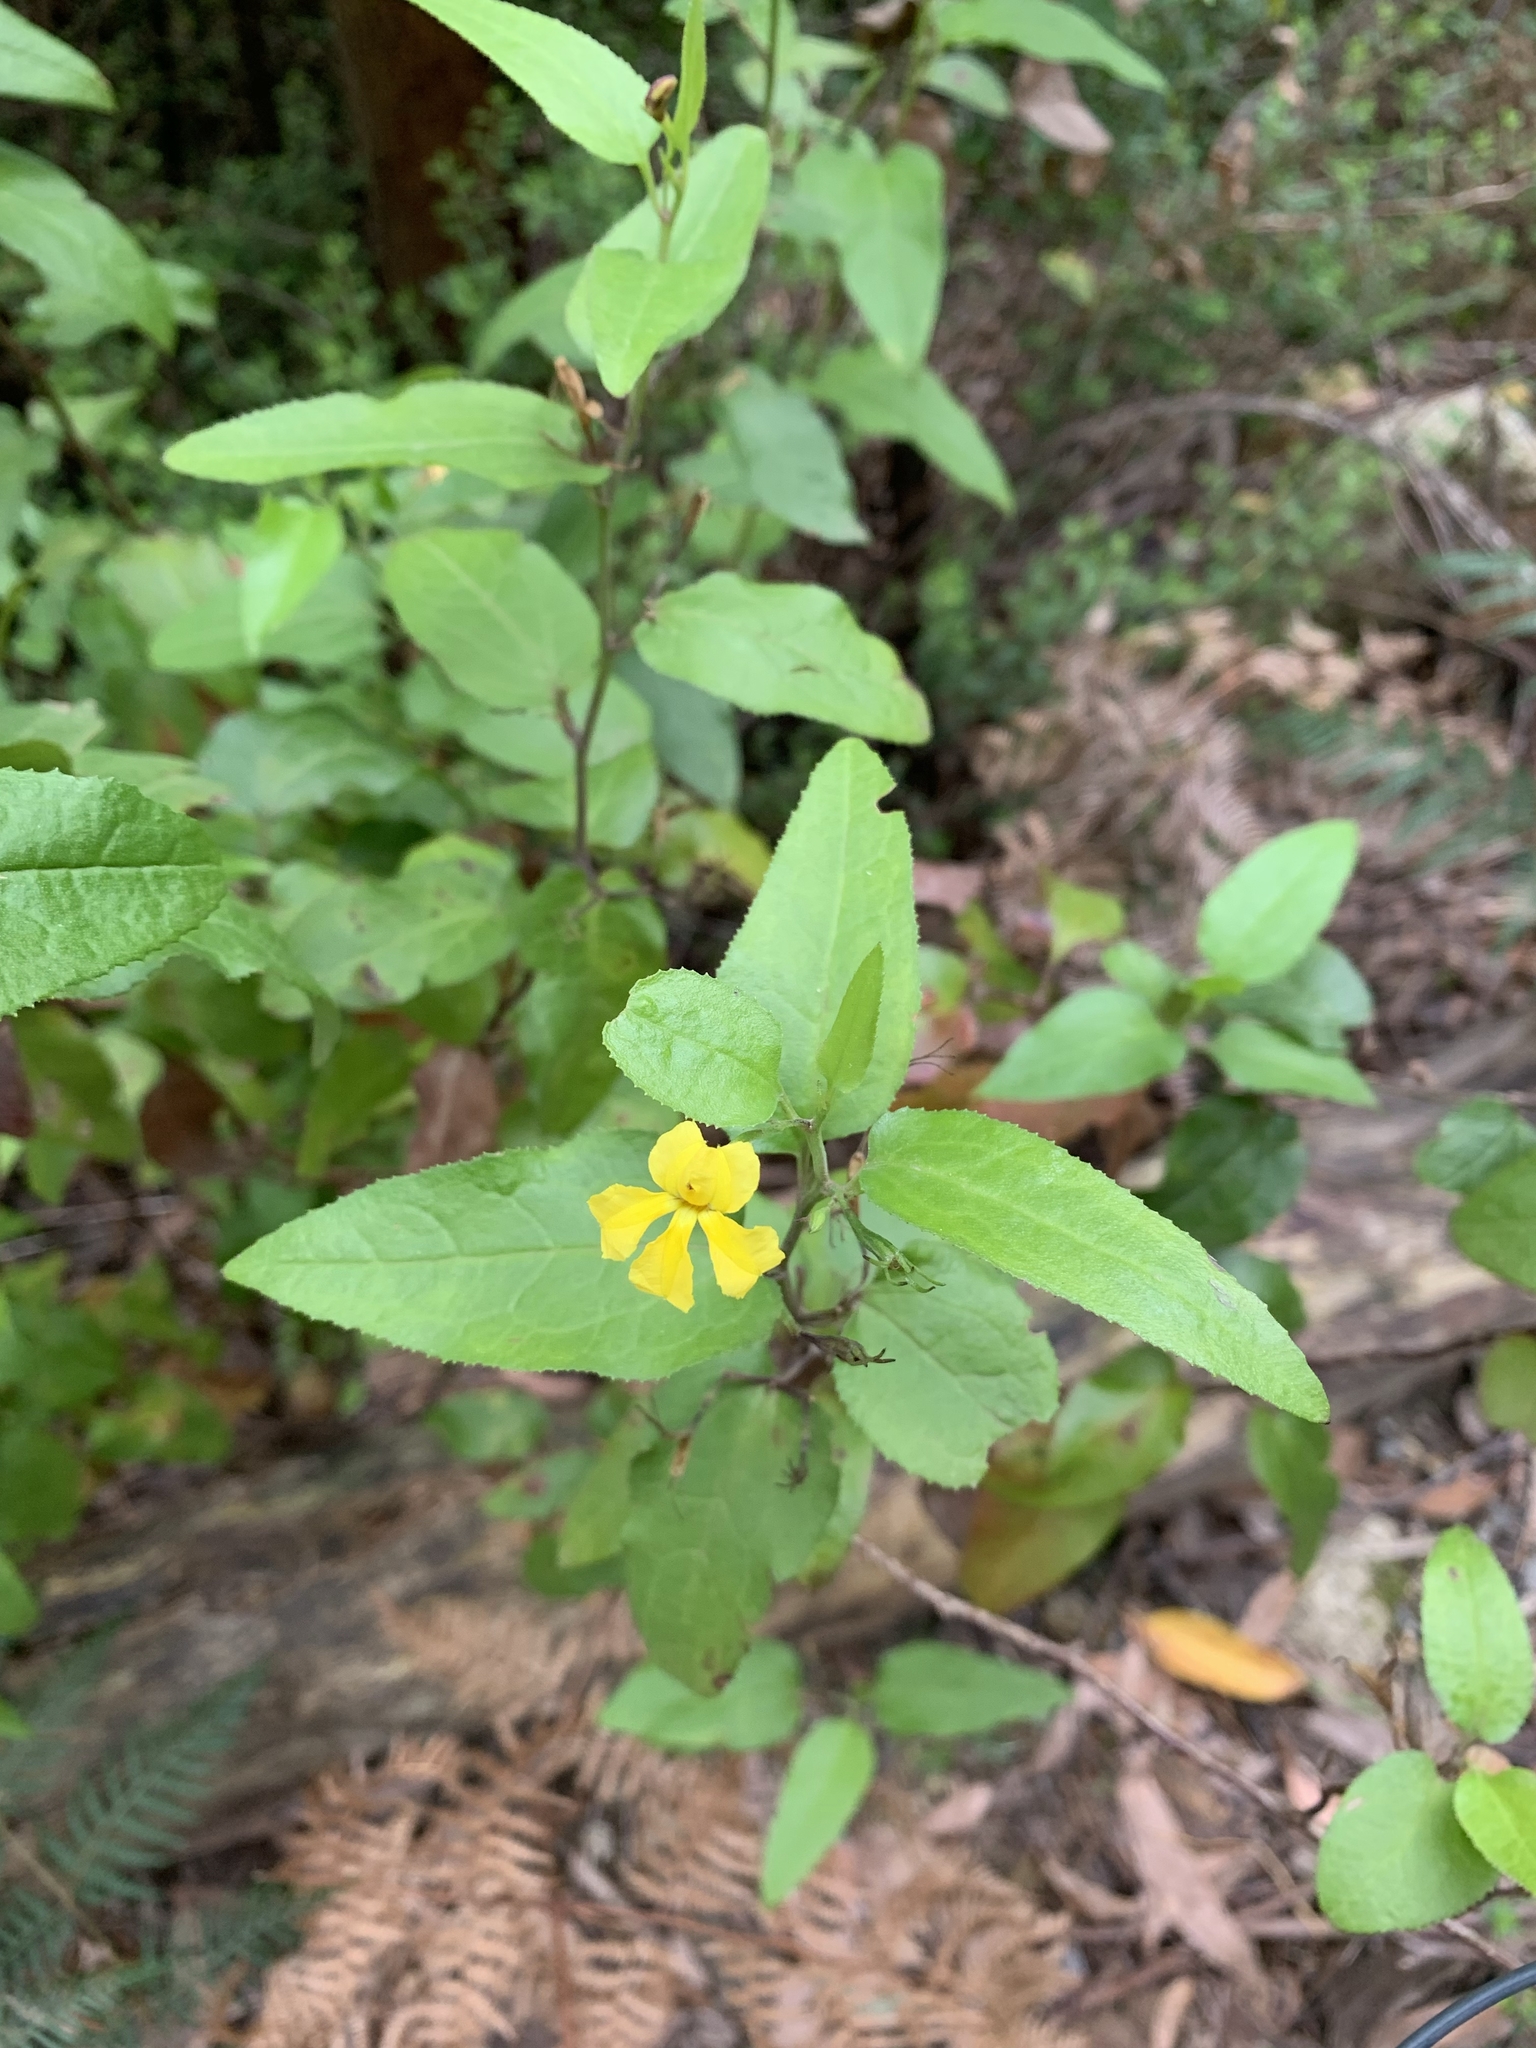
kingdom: Plantae
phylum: Tracheophyta
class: Magnoliopsida
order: Asterales
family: Goodeniaceae
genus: Goodenia
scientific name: Goodenia ovata
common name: Hop goodenia
